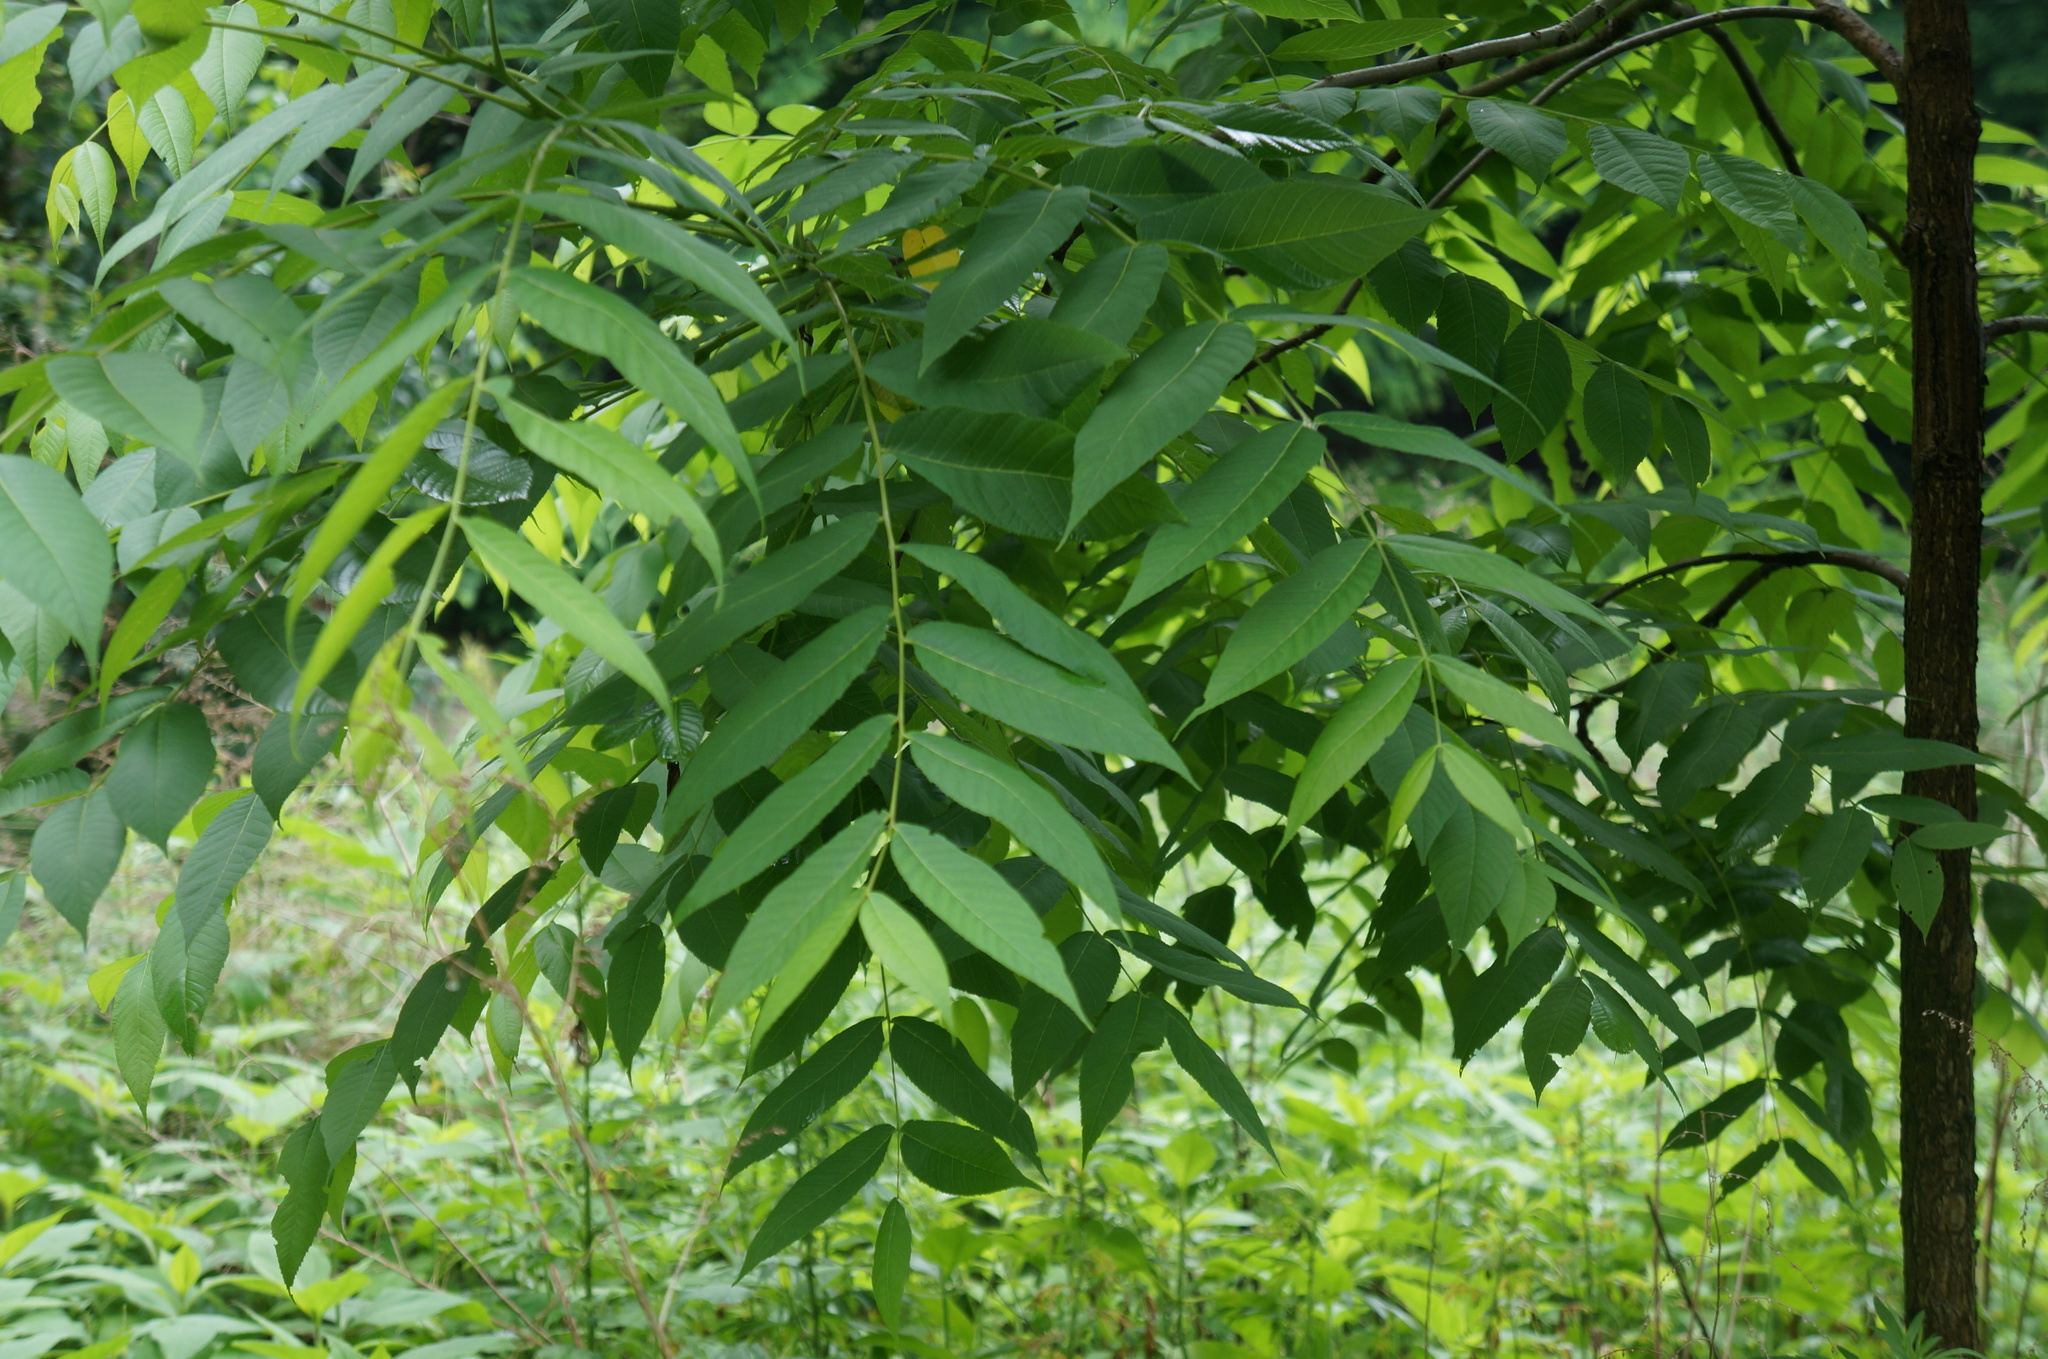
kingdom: Plantae
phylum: Tracheophyta
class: Magnoliopsida
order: Fagales
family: Juglandaceae
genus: Juglans
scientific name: Juglans nigra
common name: Black walnut
